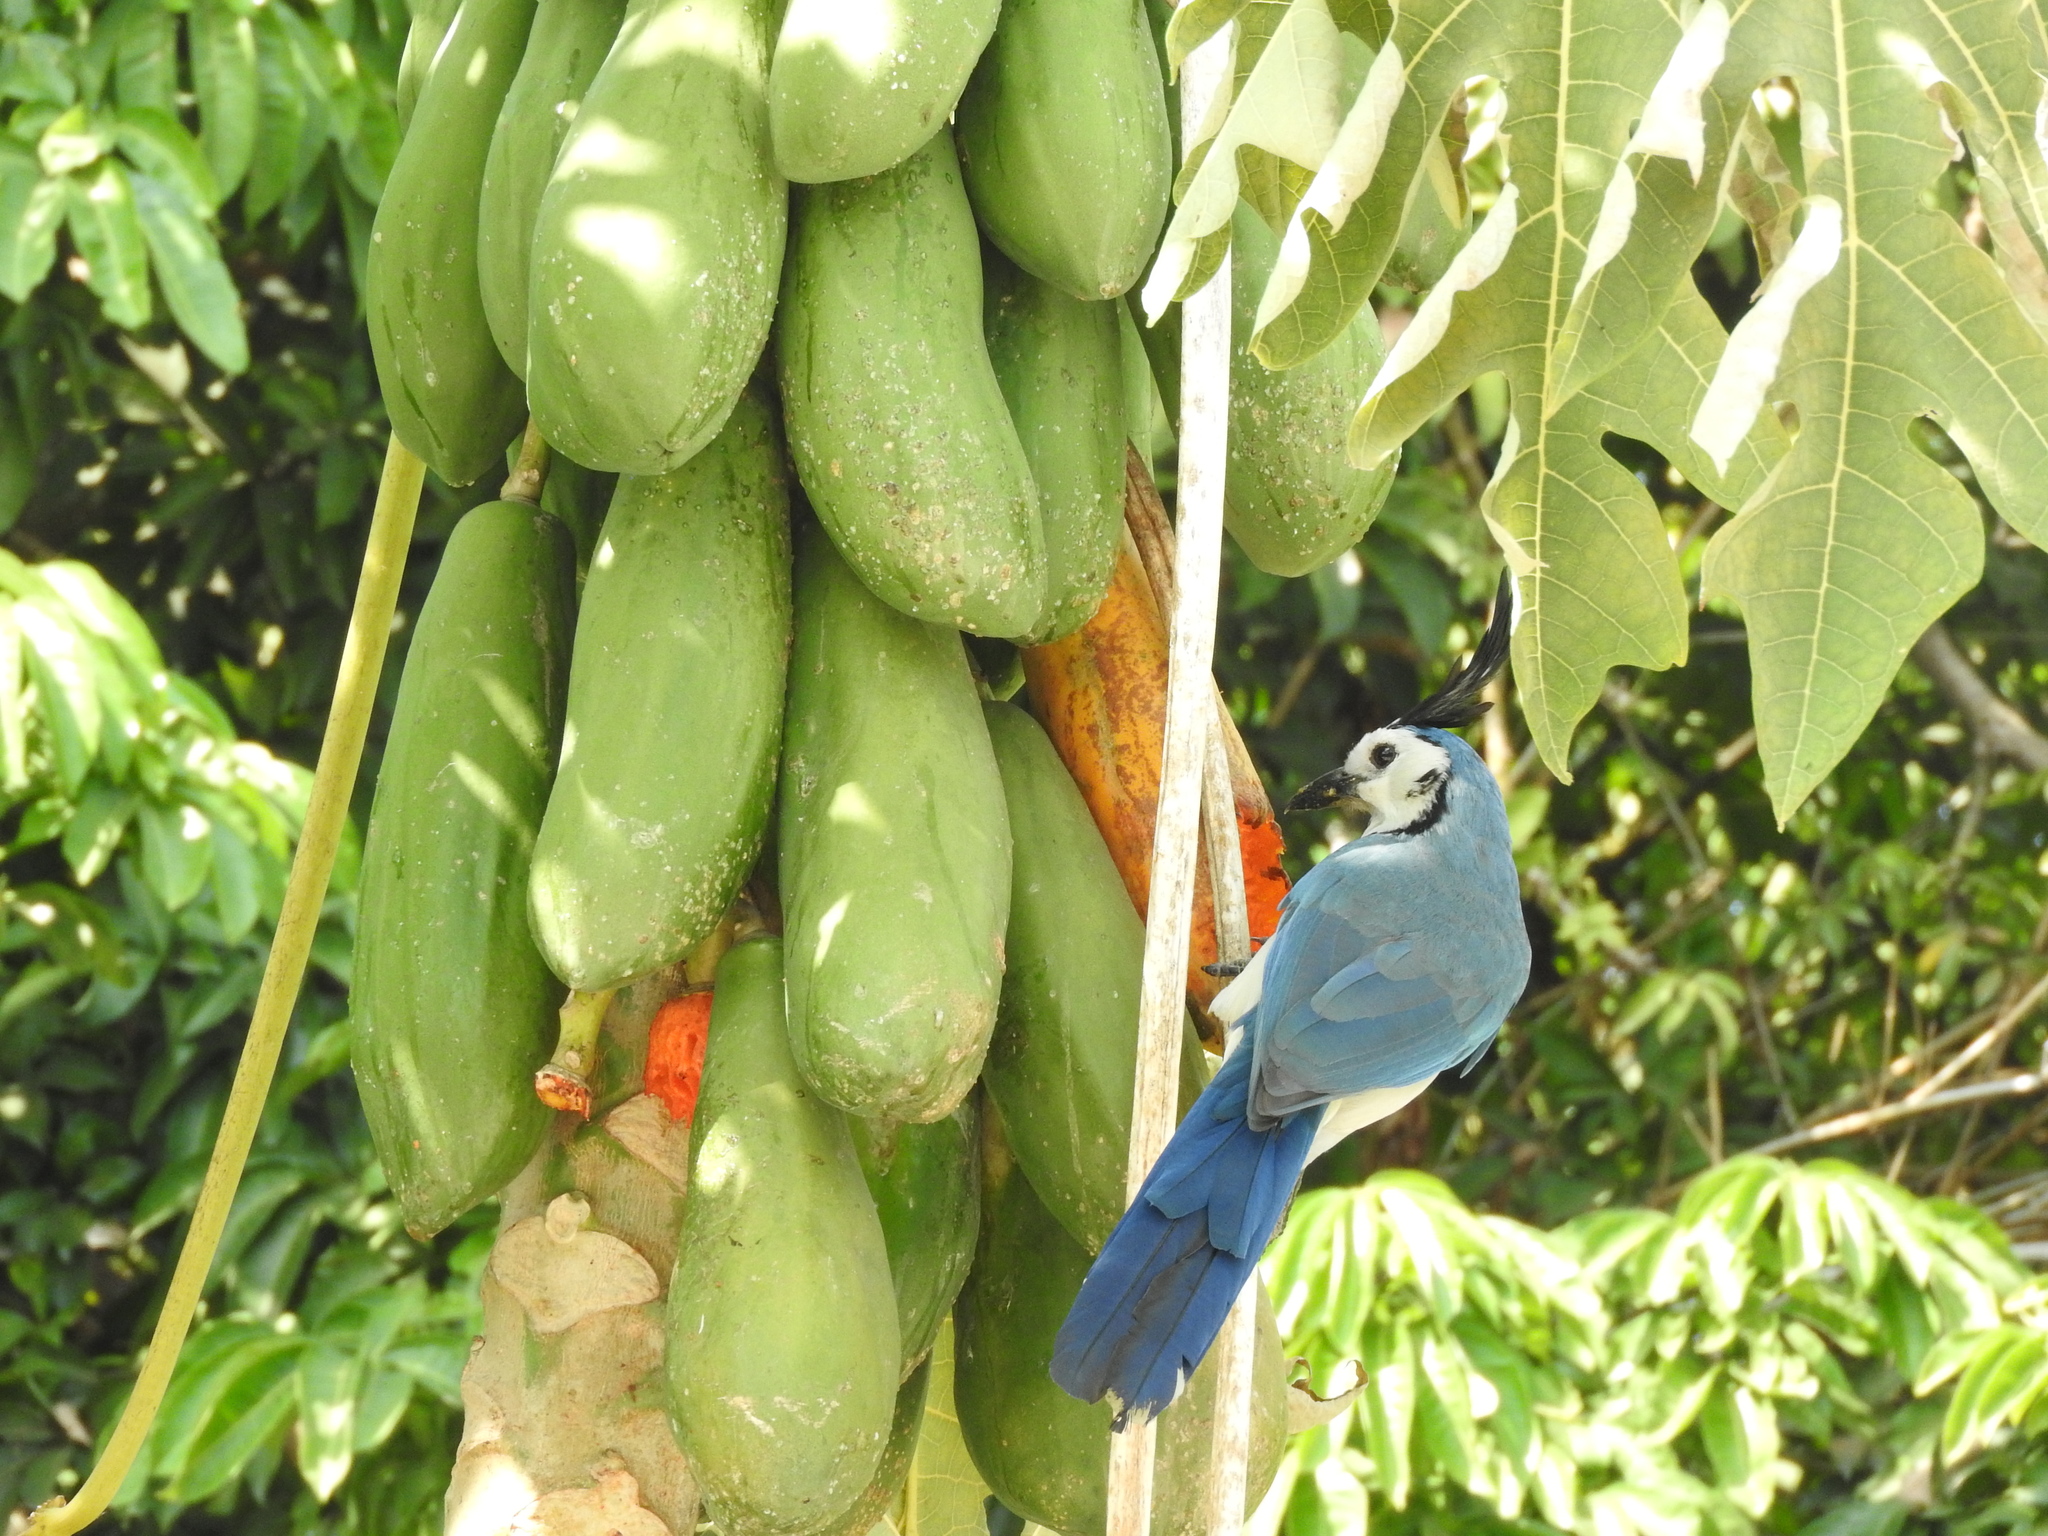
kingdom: Animalia
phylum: Chordata
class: Aves
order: Passeriformes
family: Corvidae
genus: Calocitta
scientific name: Calocitta formosa
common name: White-throated magpie-jay
